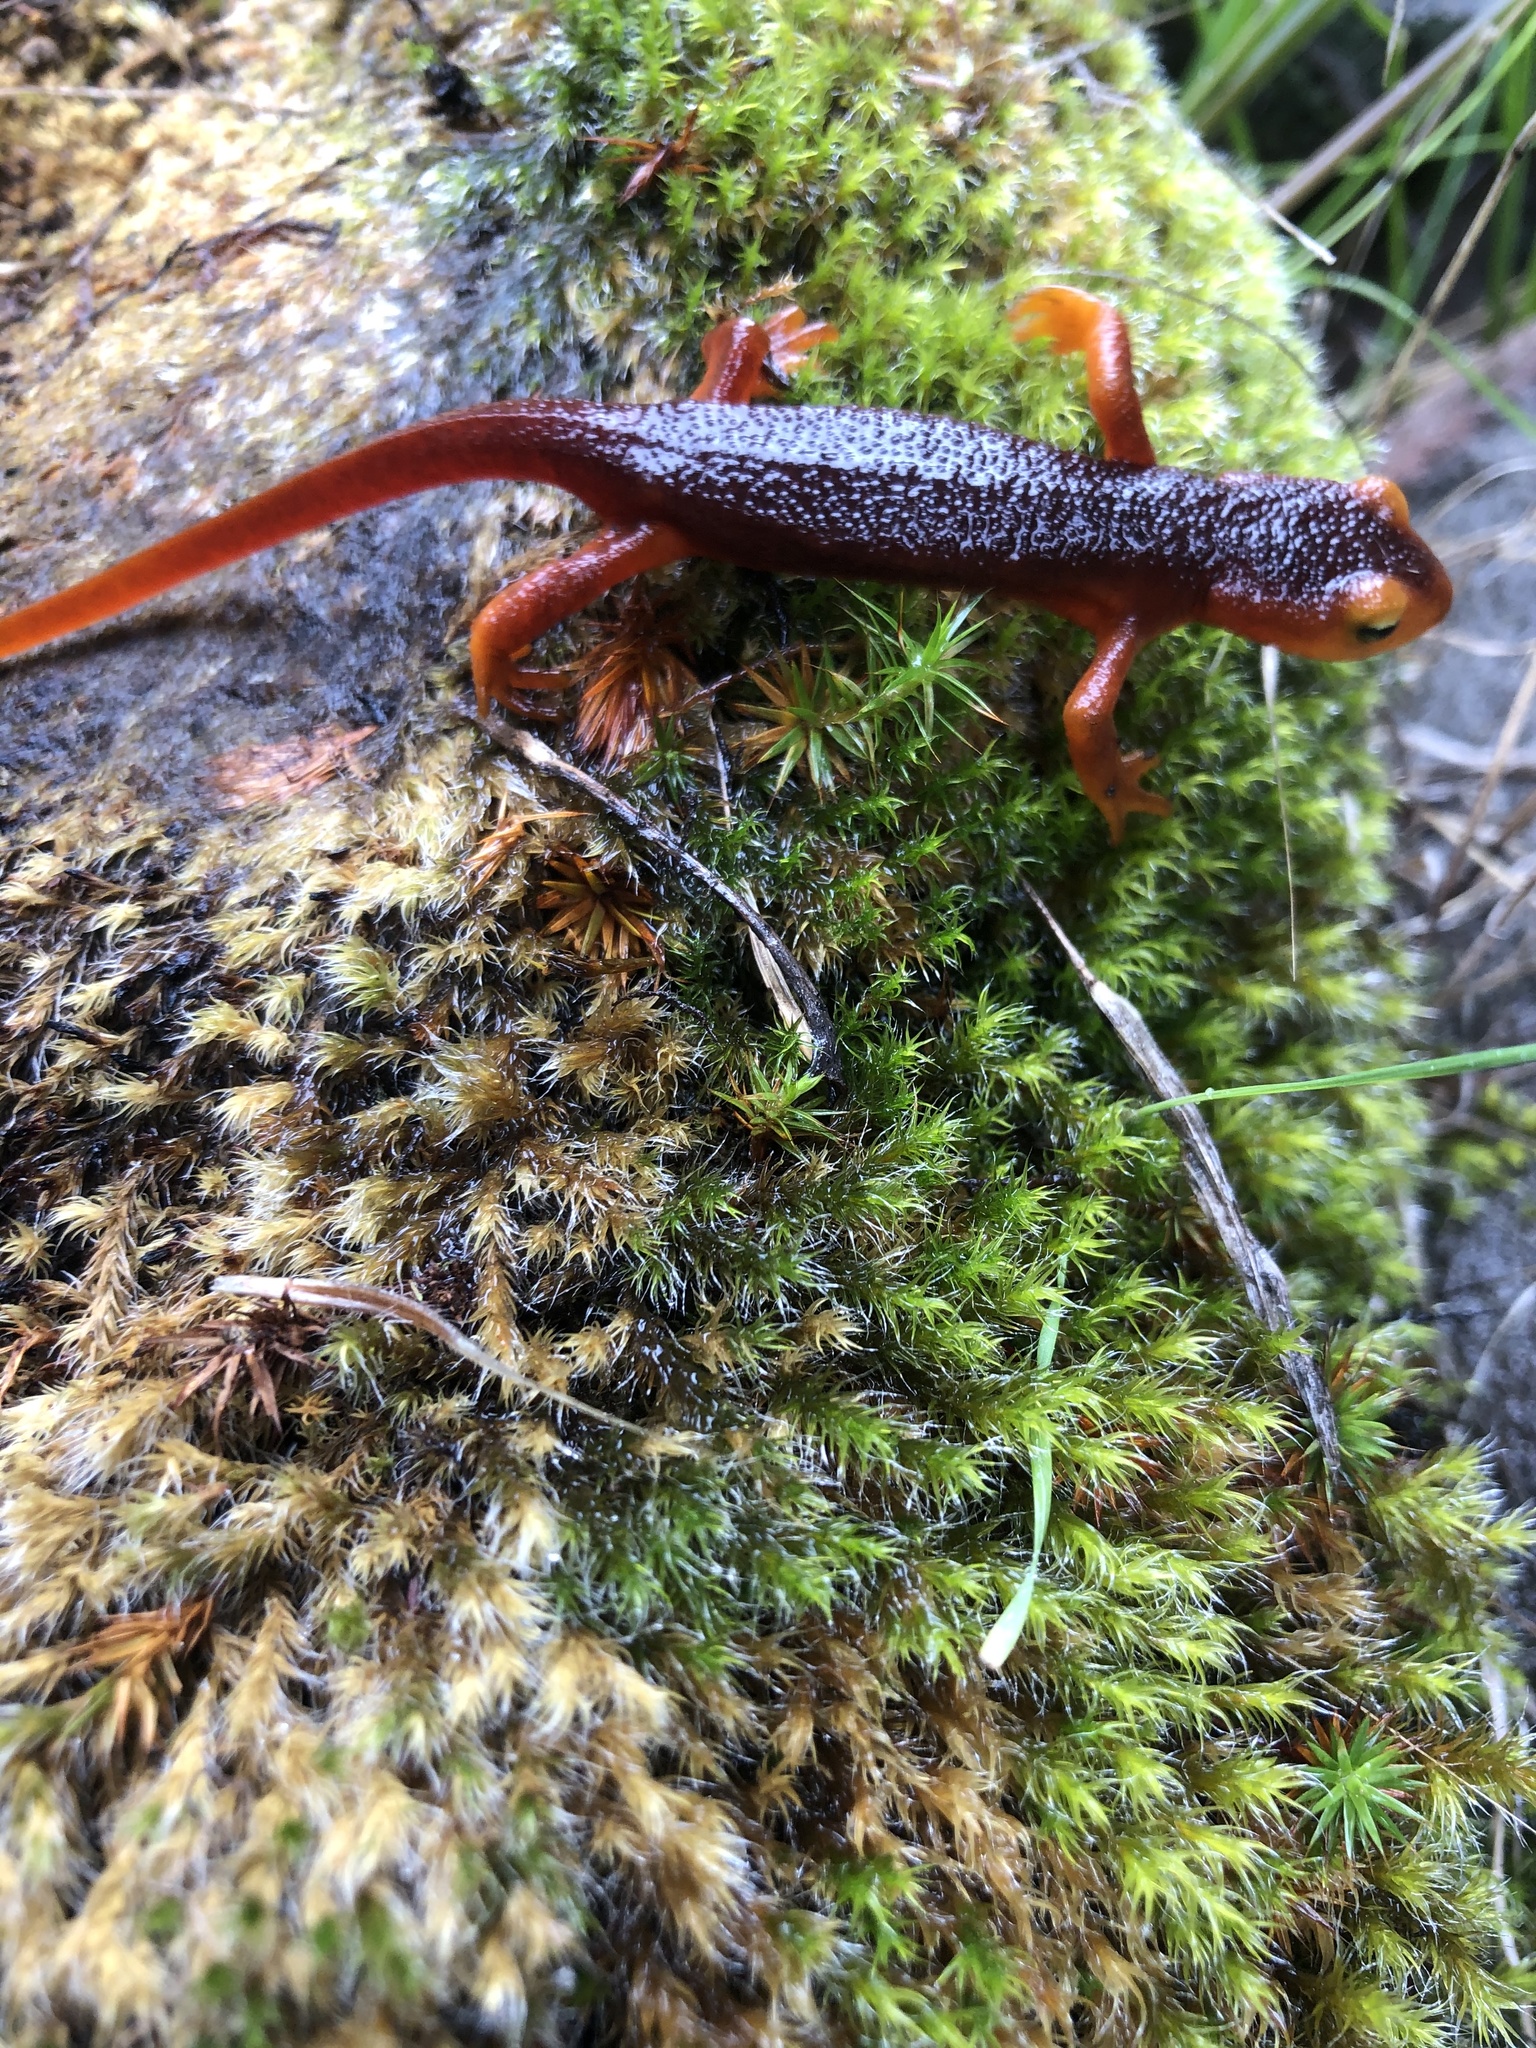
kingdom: Animalia
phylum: Chordata
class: Amphibia
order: Caudata
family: Salamandridae
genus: Taricha
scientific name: Taricha sierrae
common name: Sierra newt
